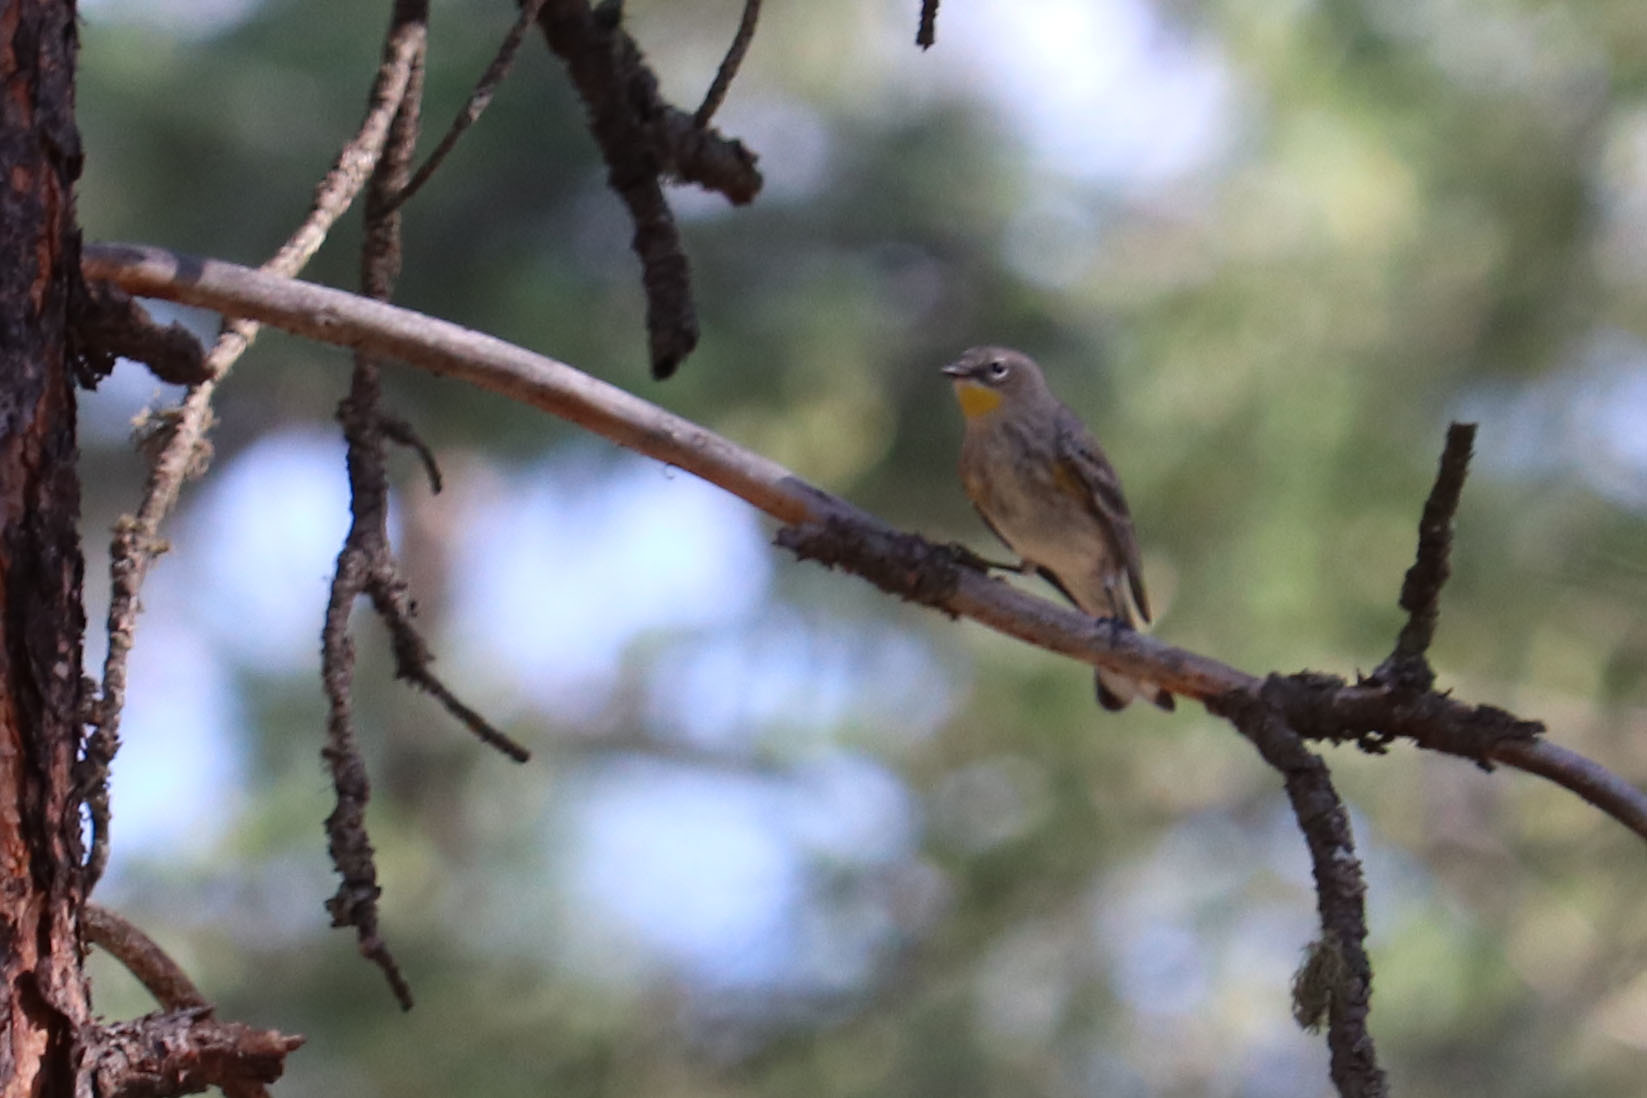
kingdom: Animalia
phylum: Chordata
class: Aves
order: Passeriformes
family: Parulidae
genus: Setophaga
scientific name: Setophaga coronata
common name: Myrtle warbler
